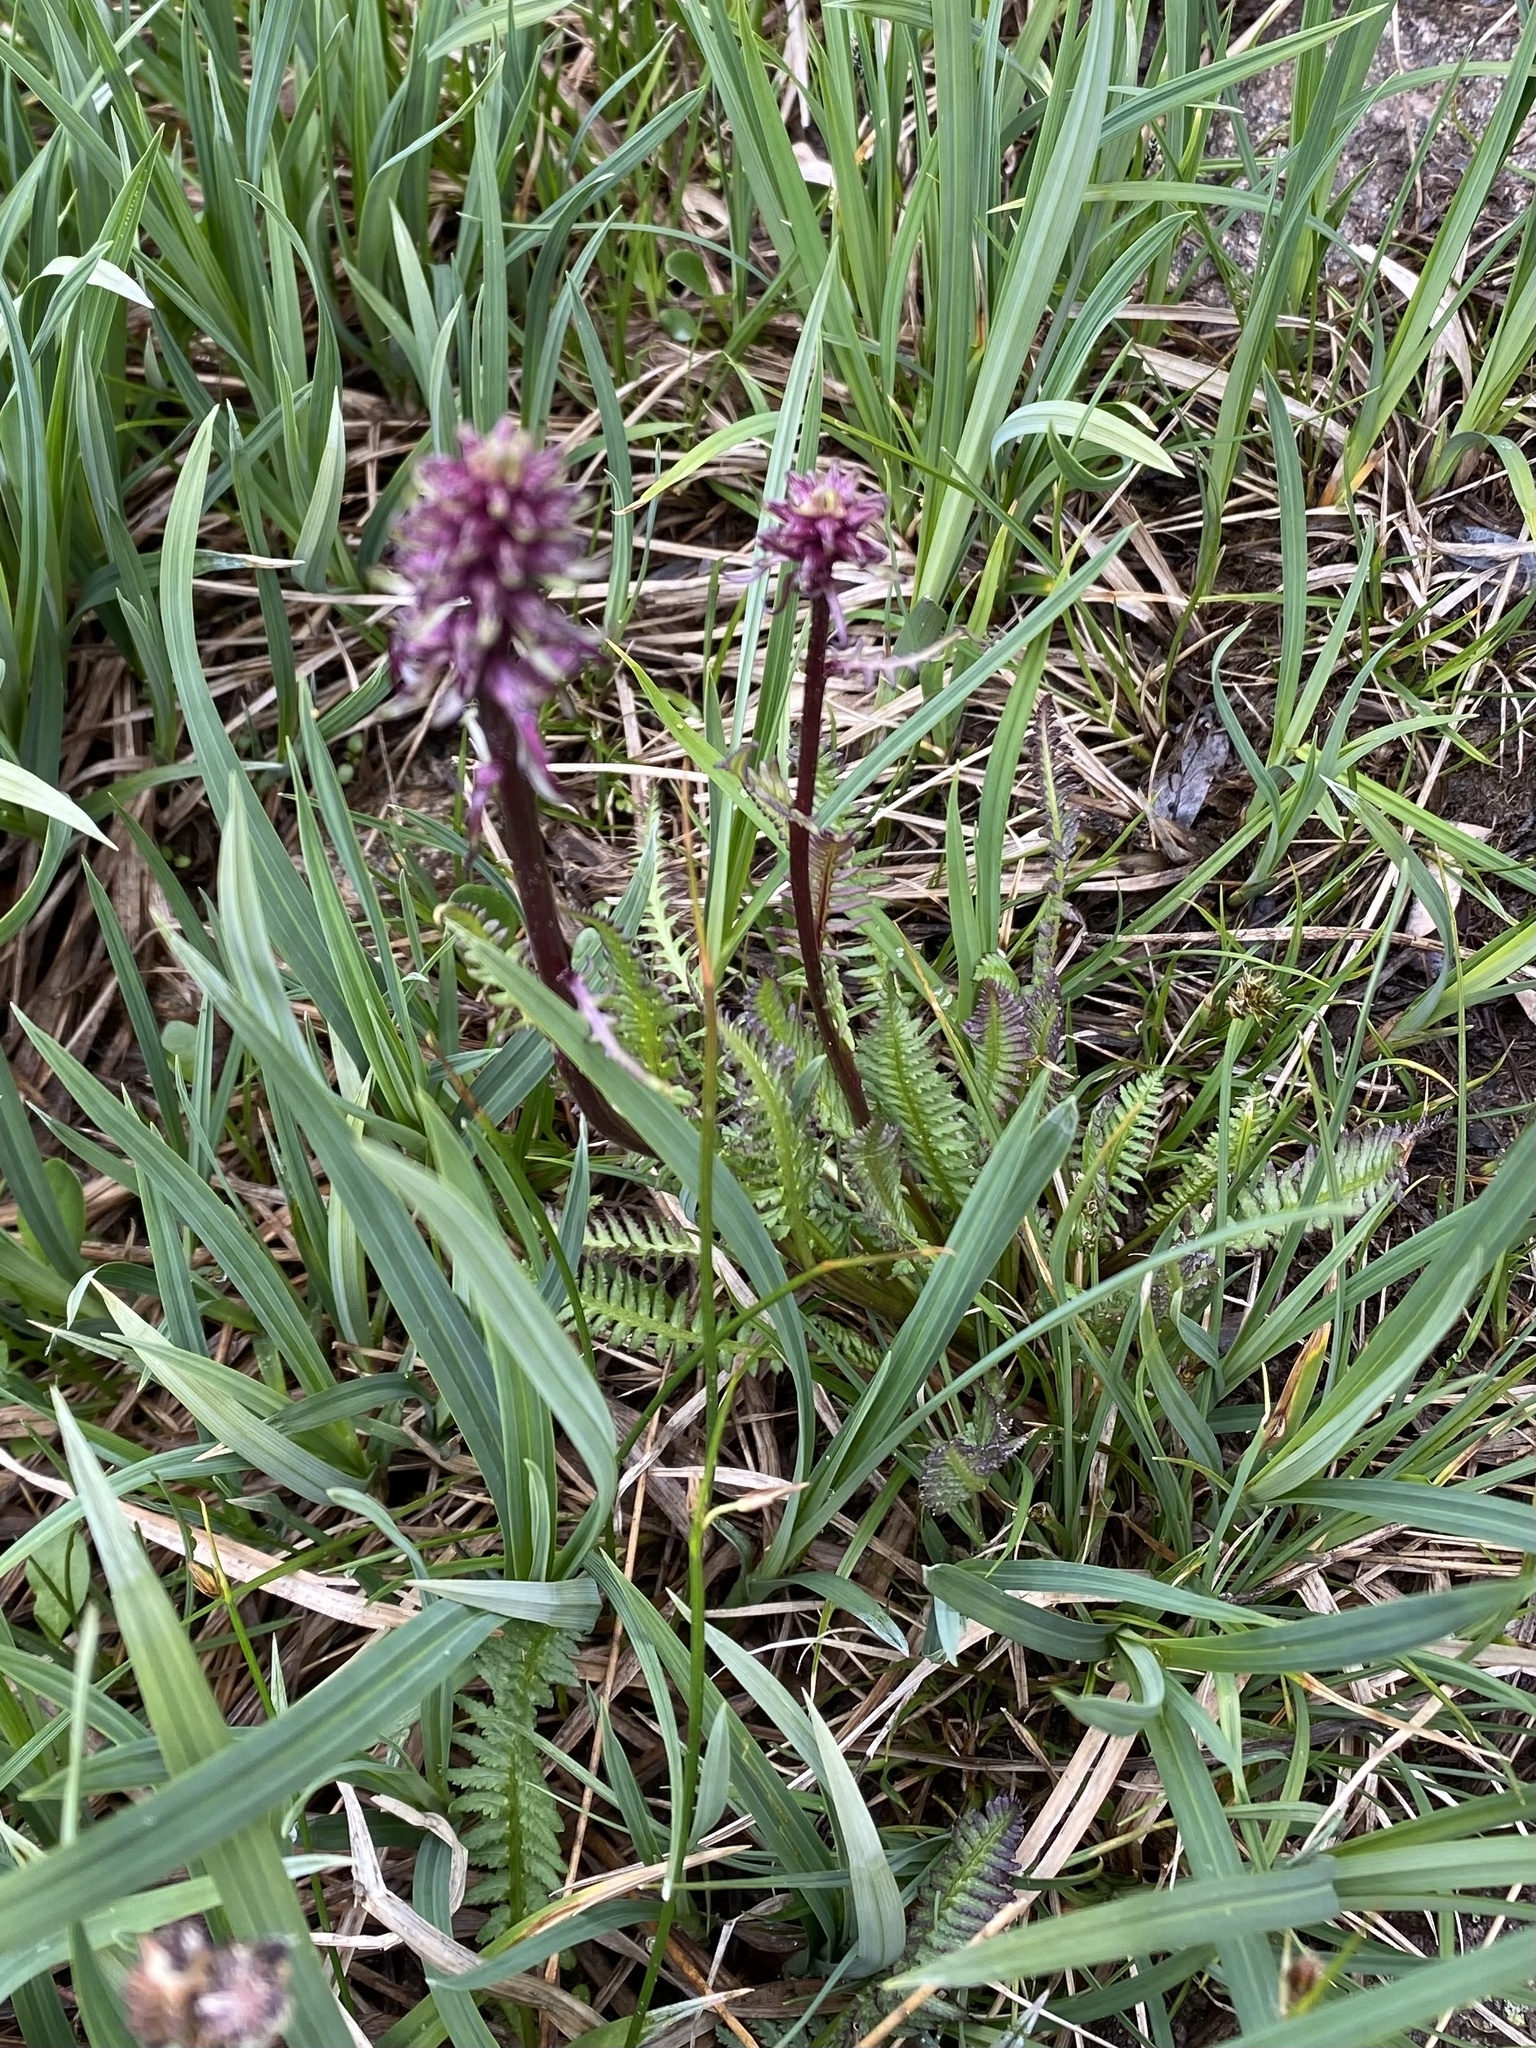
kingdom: Plantae
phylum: Tracheophyta
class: Magnoliopsida
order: Lamiales
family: Orobanchaceae
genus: Pedicularis
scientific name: Pedicularis groenlandica
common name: Elephant's-head
